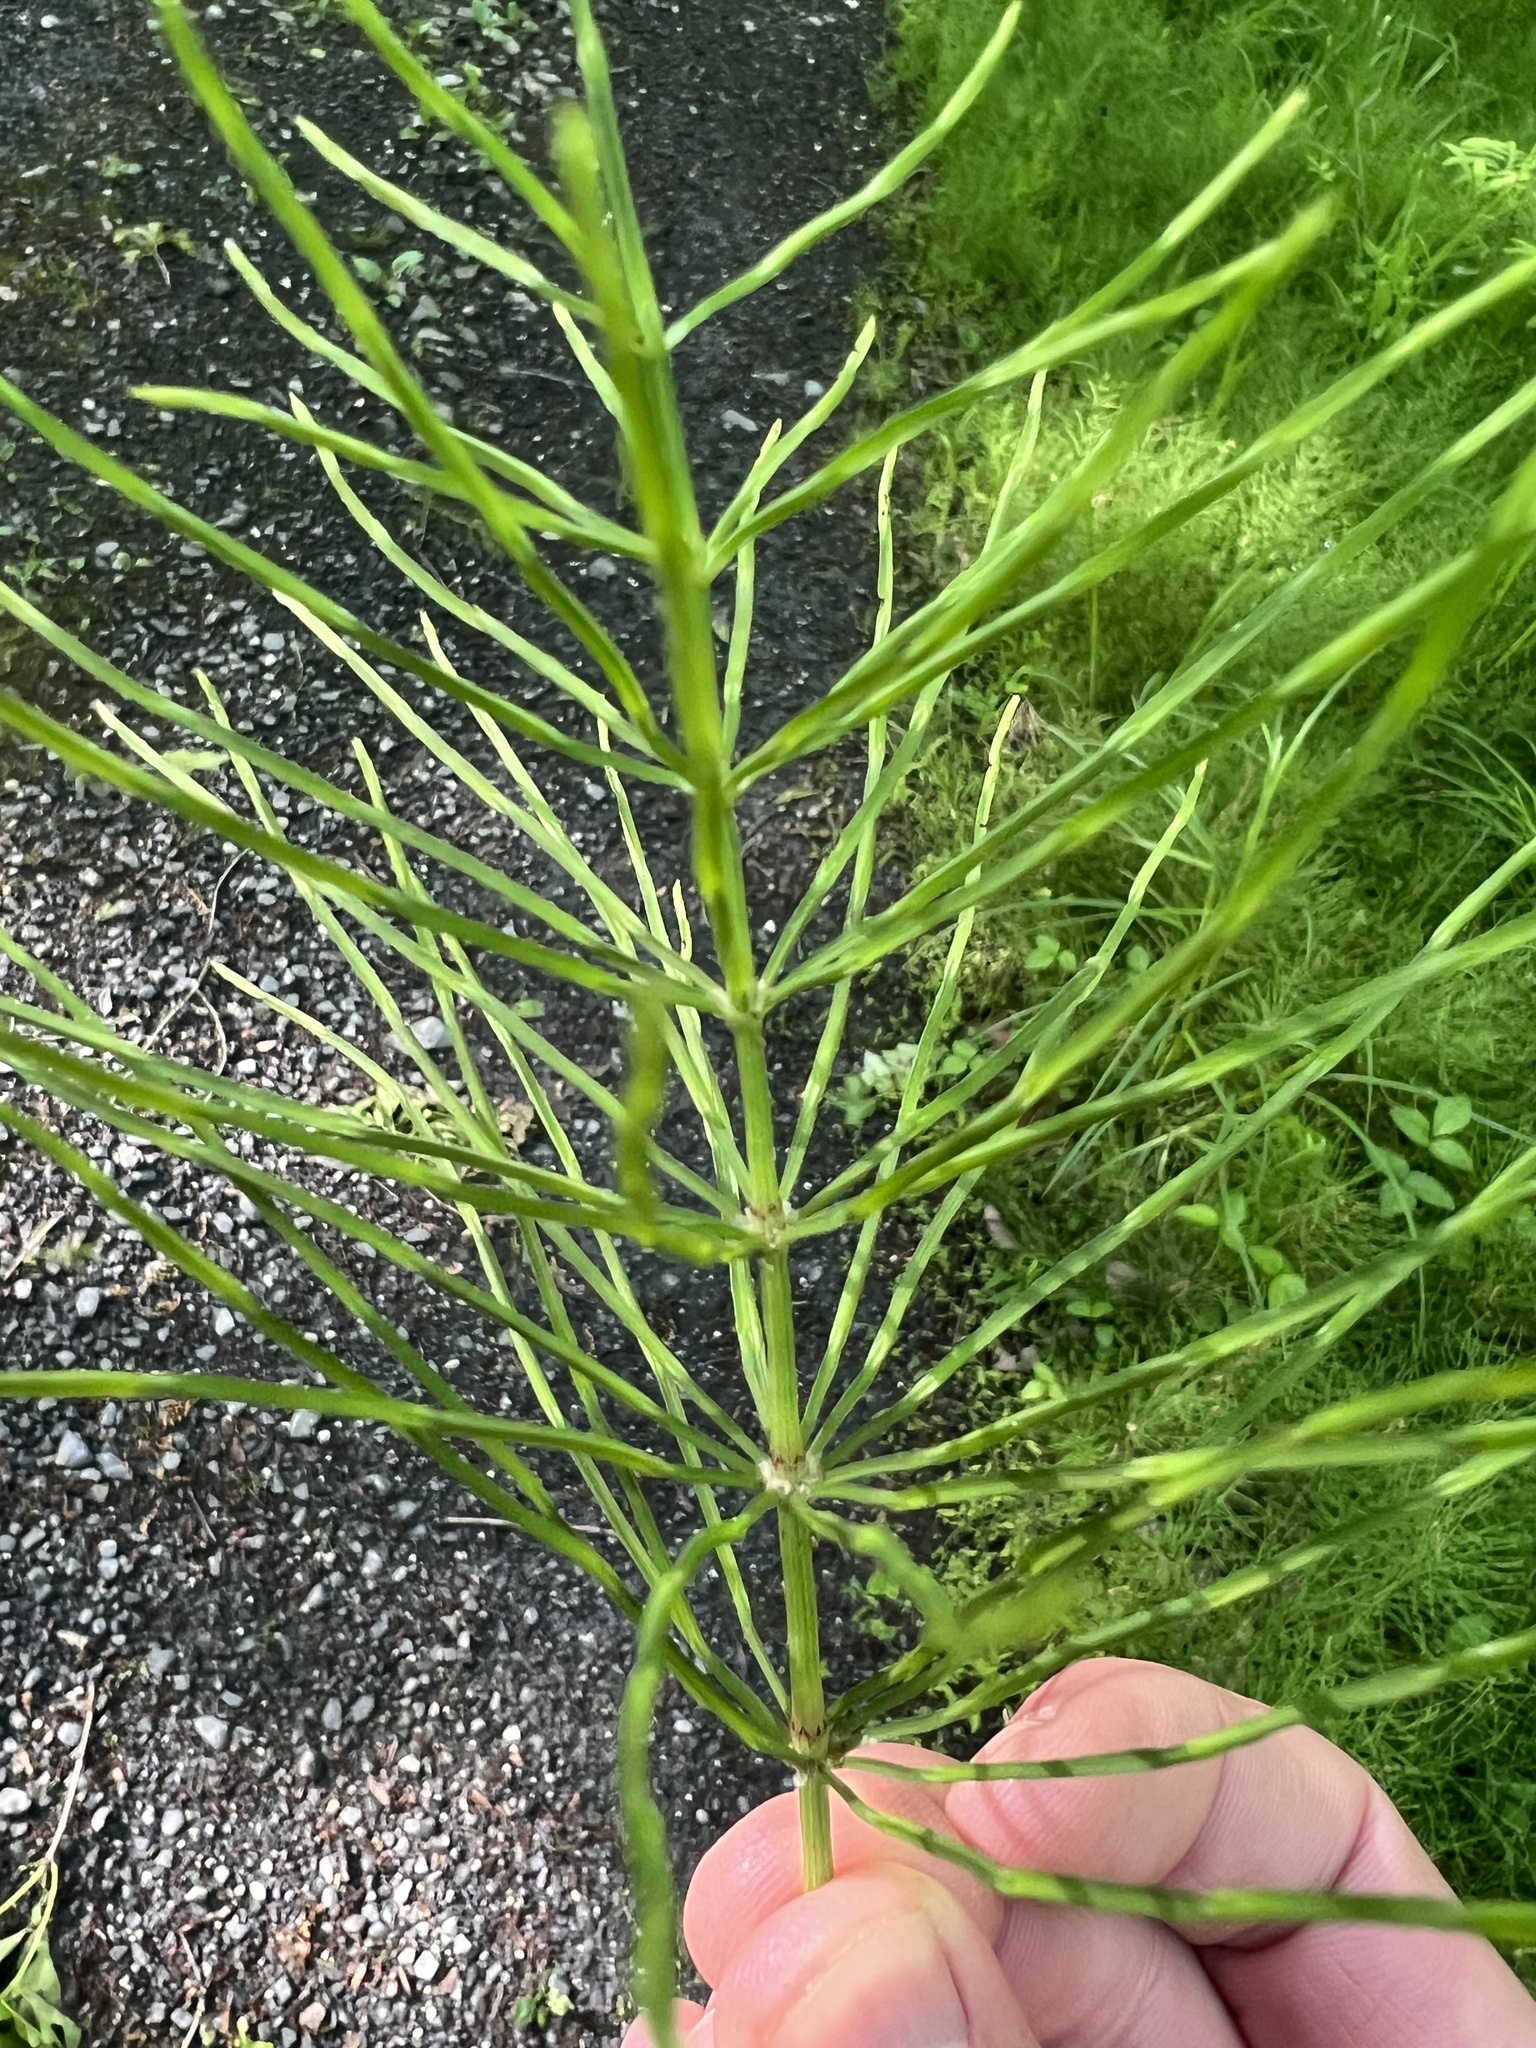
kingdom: Plantae
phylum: Tracheophyta
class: Polypodiopsida
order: Equisetales
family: Equisetaceae
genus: Equisetum
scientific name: Equisetum arvense
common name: Field horsetail
